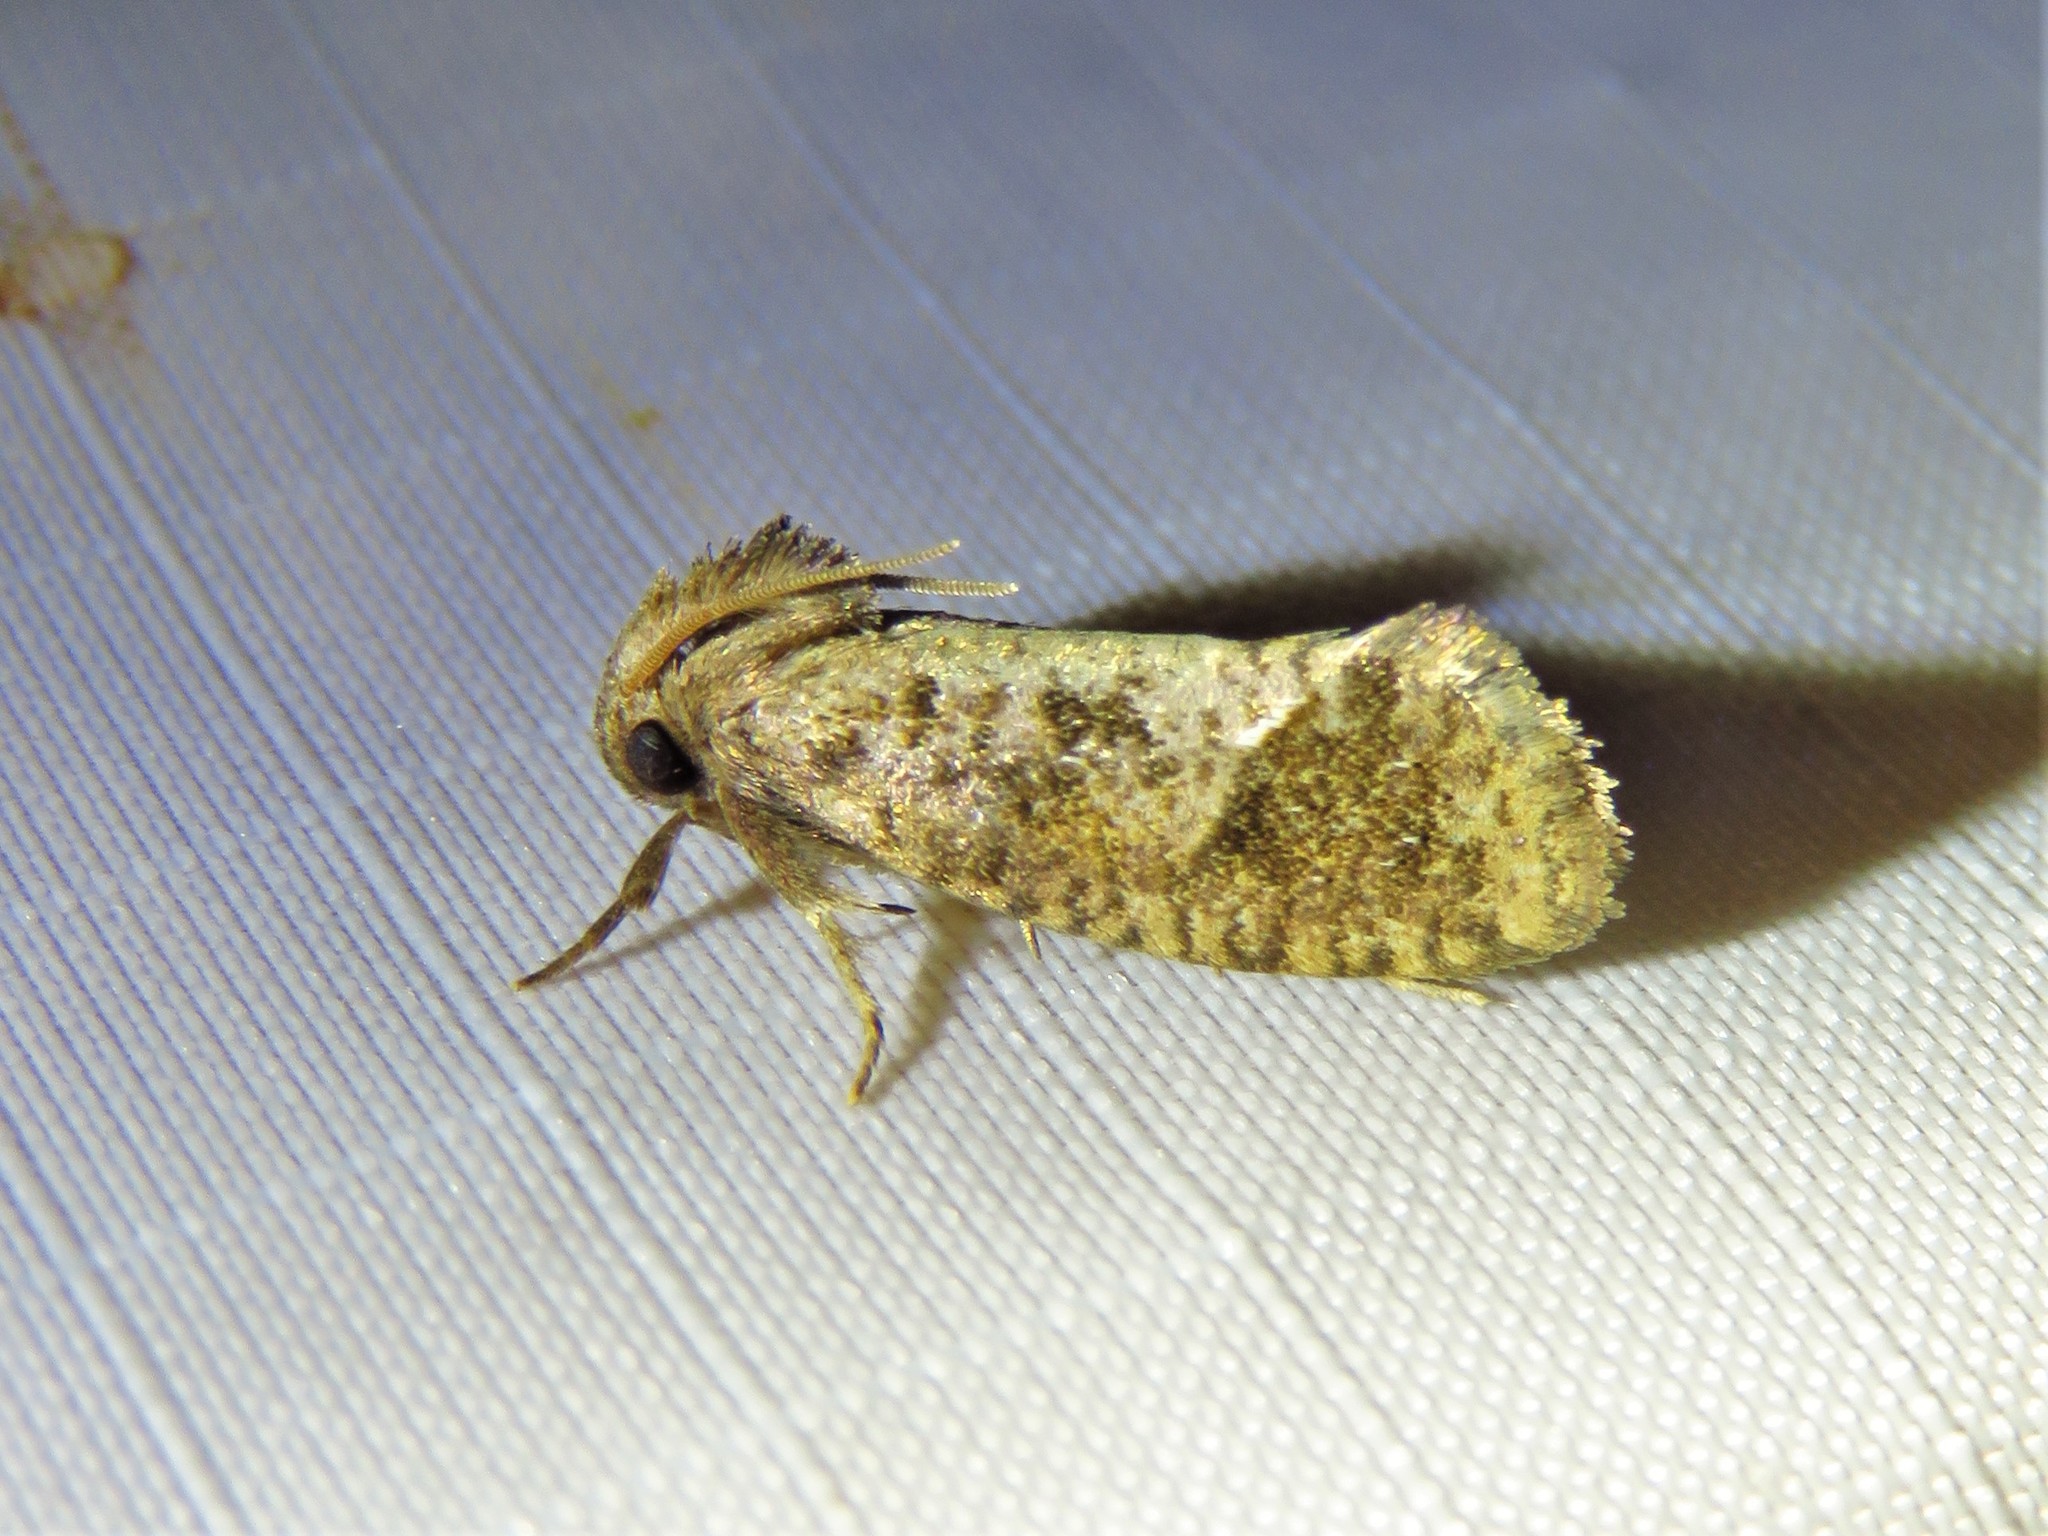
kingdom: Animalia
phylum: Arthropoda
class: Insecta
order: Lepidoptera
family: Tineidae
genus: Acrolophus
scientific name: Acrolophus texanella
